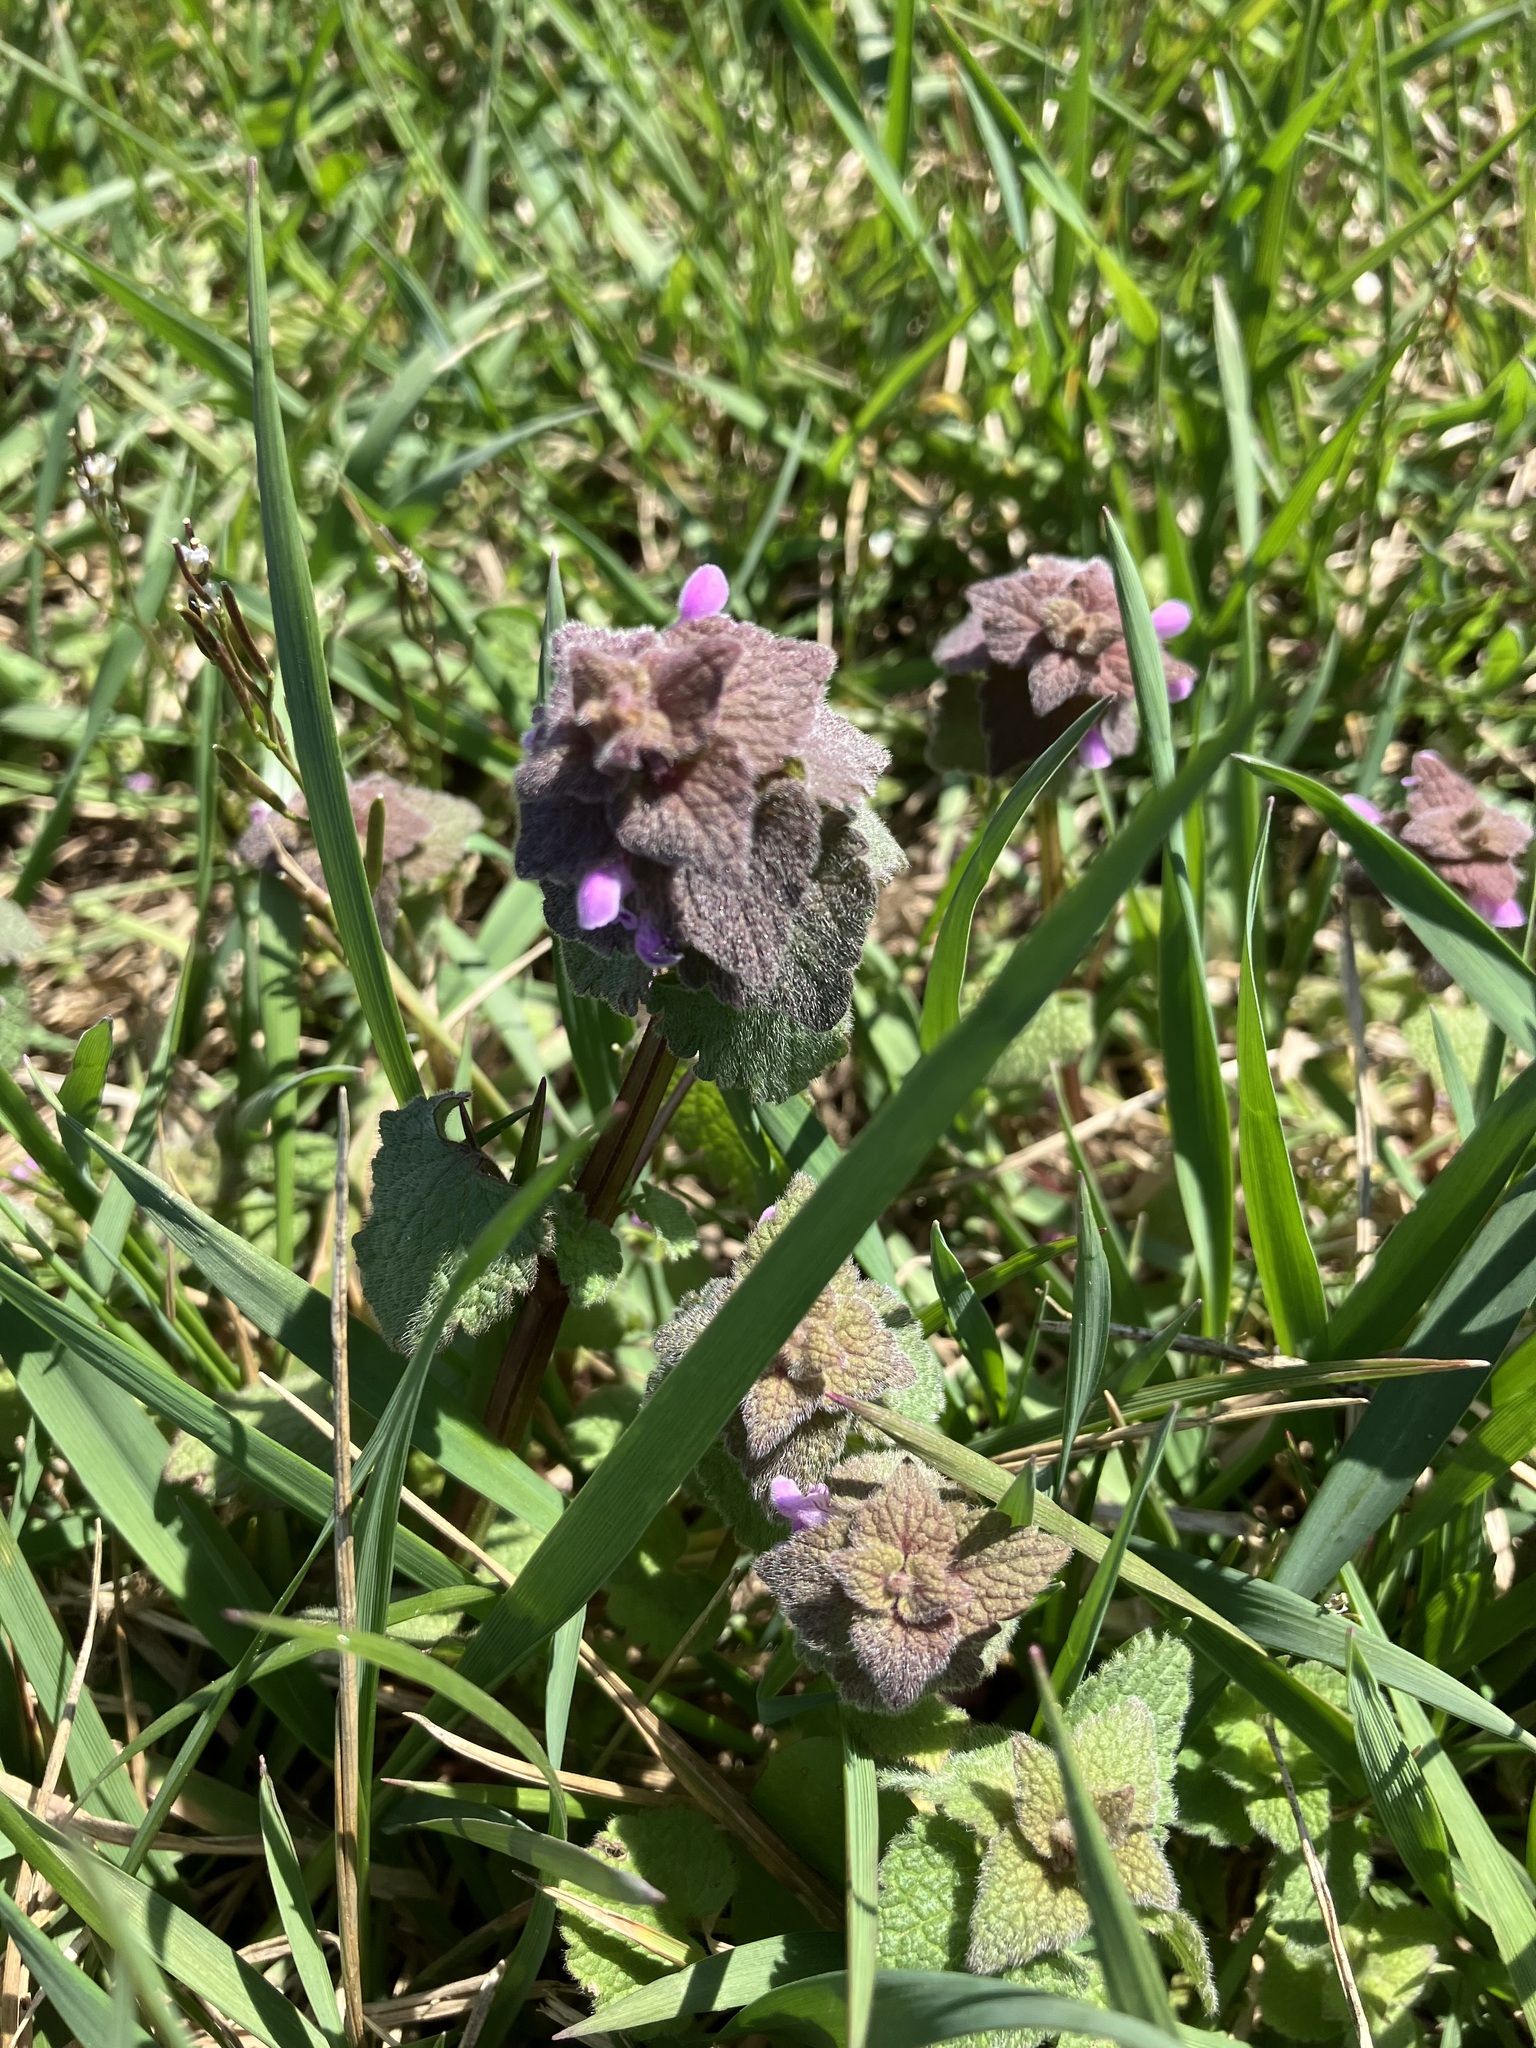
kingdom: Plantae
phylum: Tracheophyta
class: Magnoliopsida
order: Lamiales
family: Lamiaceae
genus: Lamium
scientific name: Lamium purpureum
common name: Red dead-nettle
